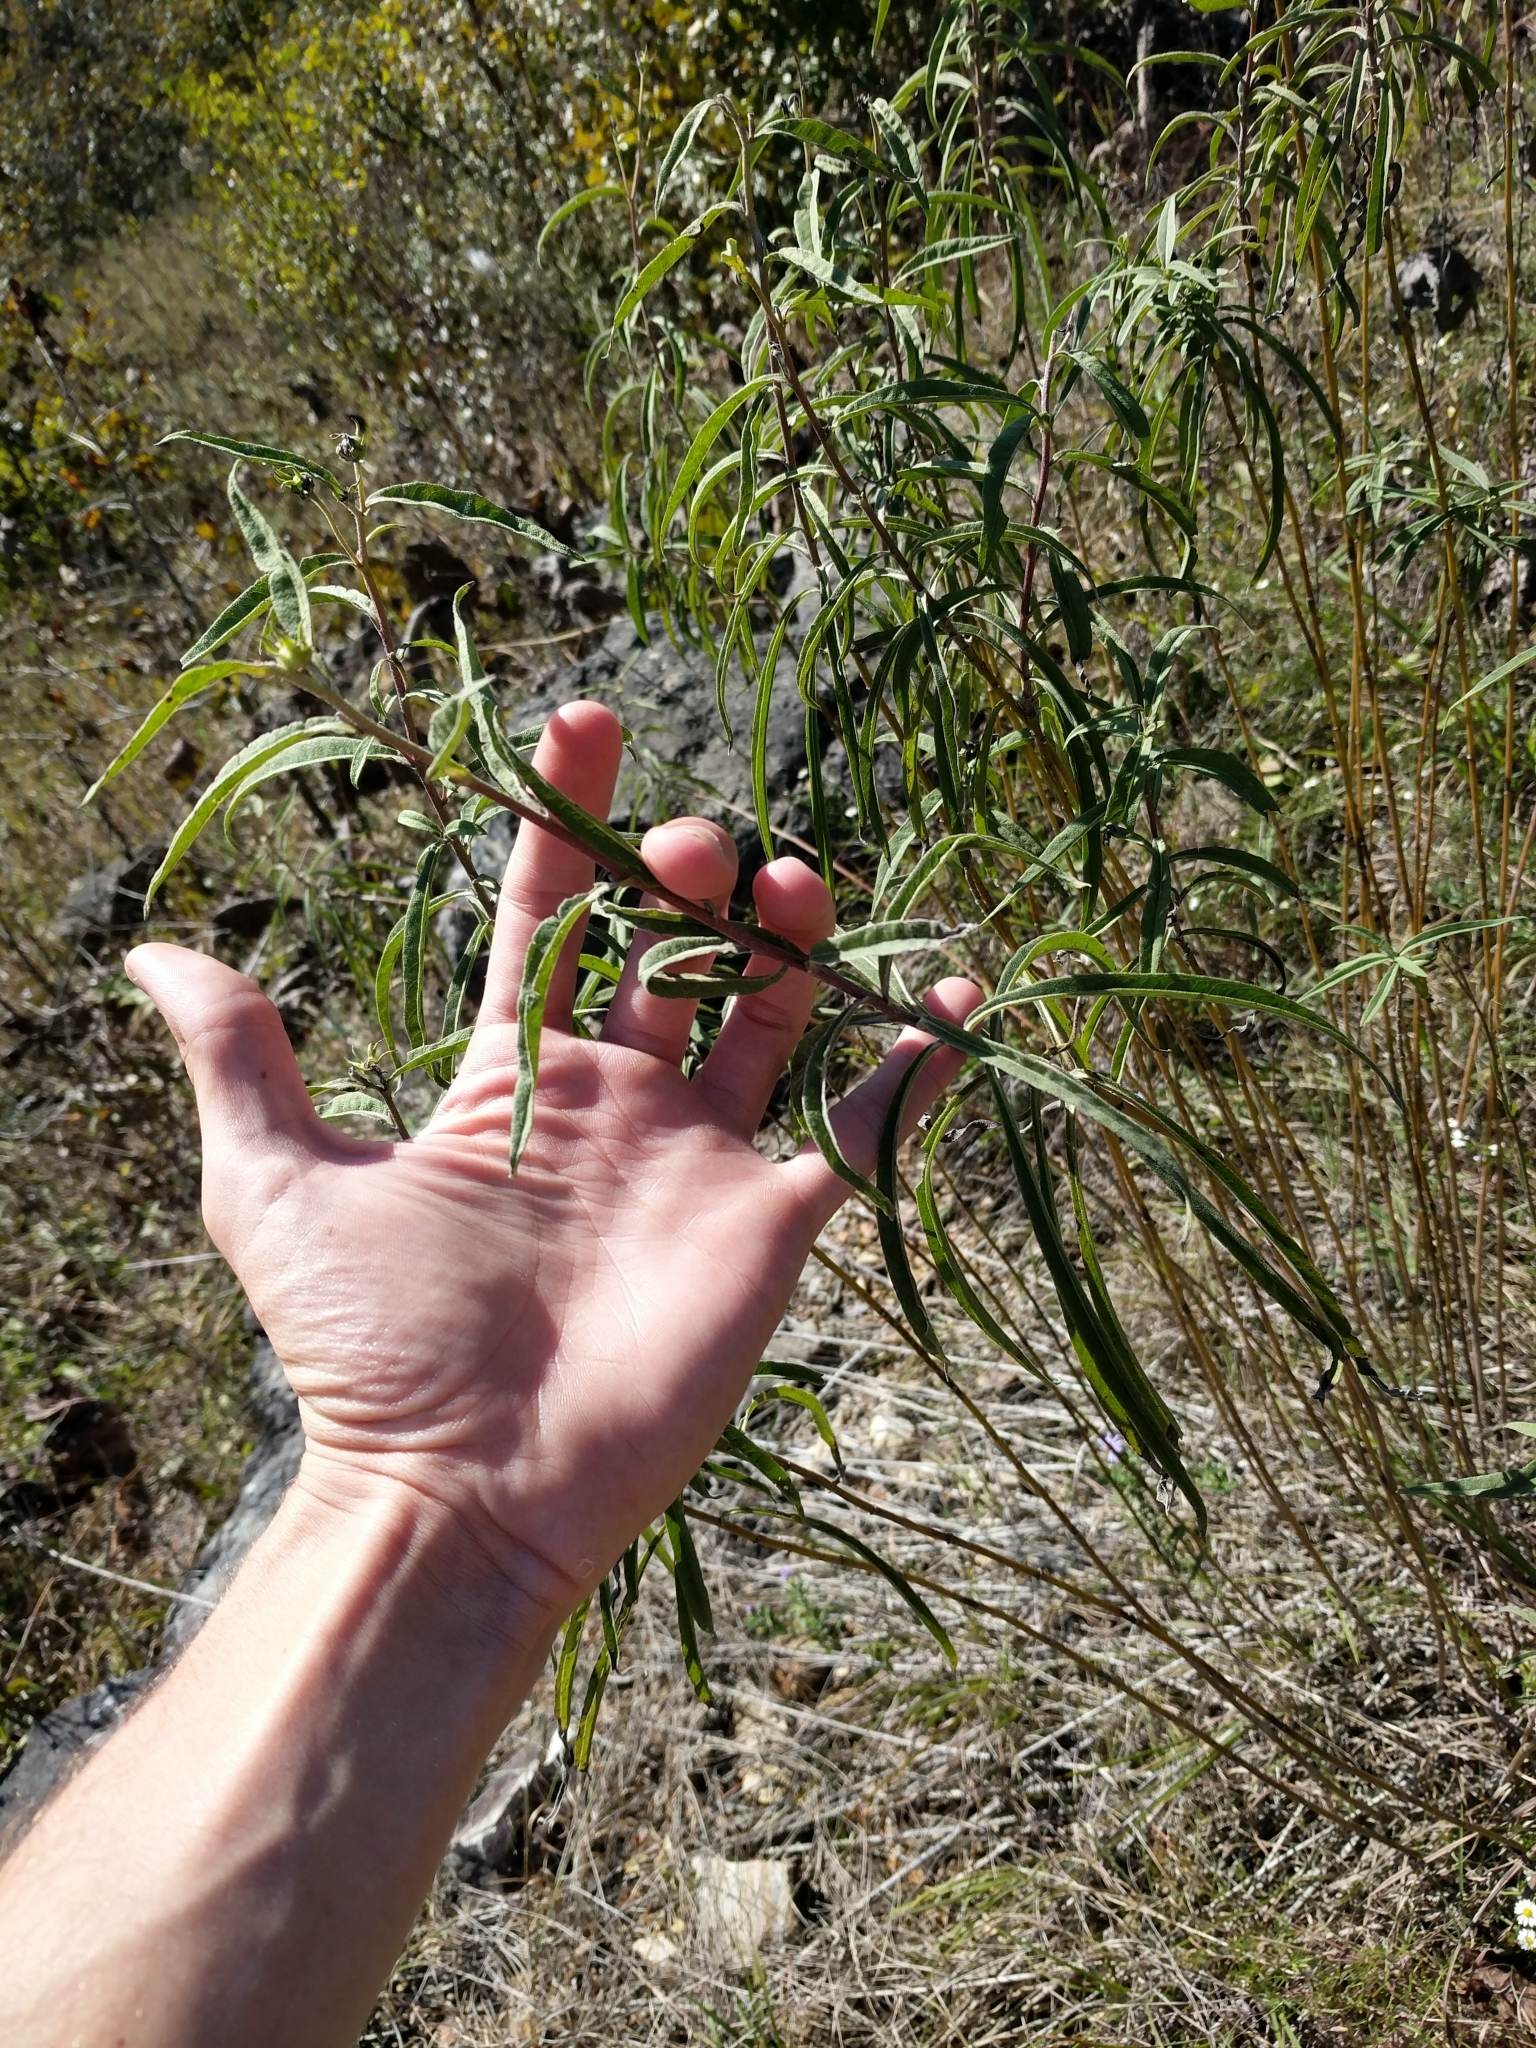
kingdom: Plantae
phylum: Tracheophyta
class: Magnoliopsida
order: Asterales
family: Asteraceae
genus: Helianthus
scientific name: Helianthus maximiliani
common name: Maximilian's sunflower
